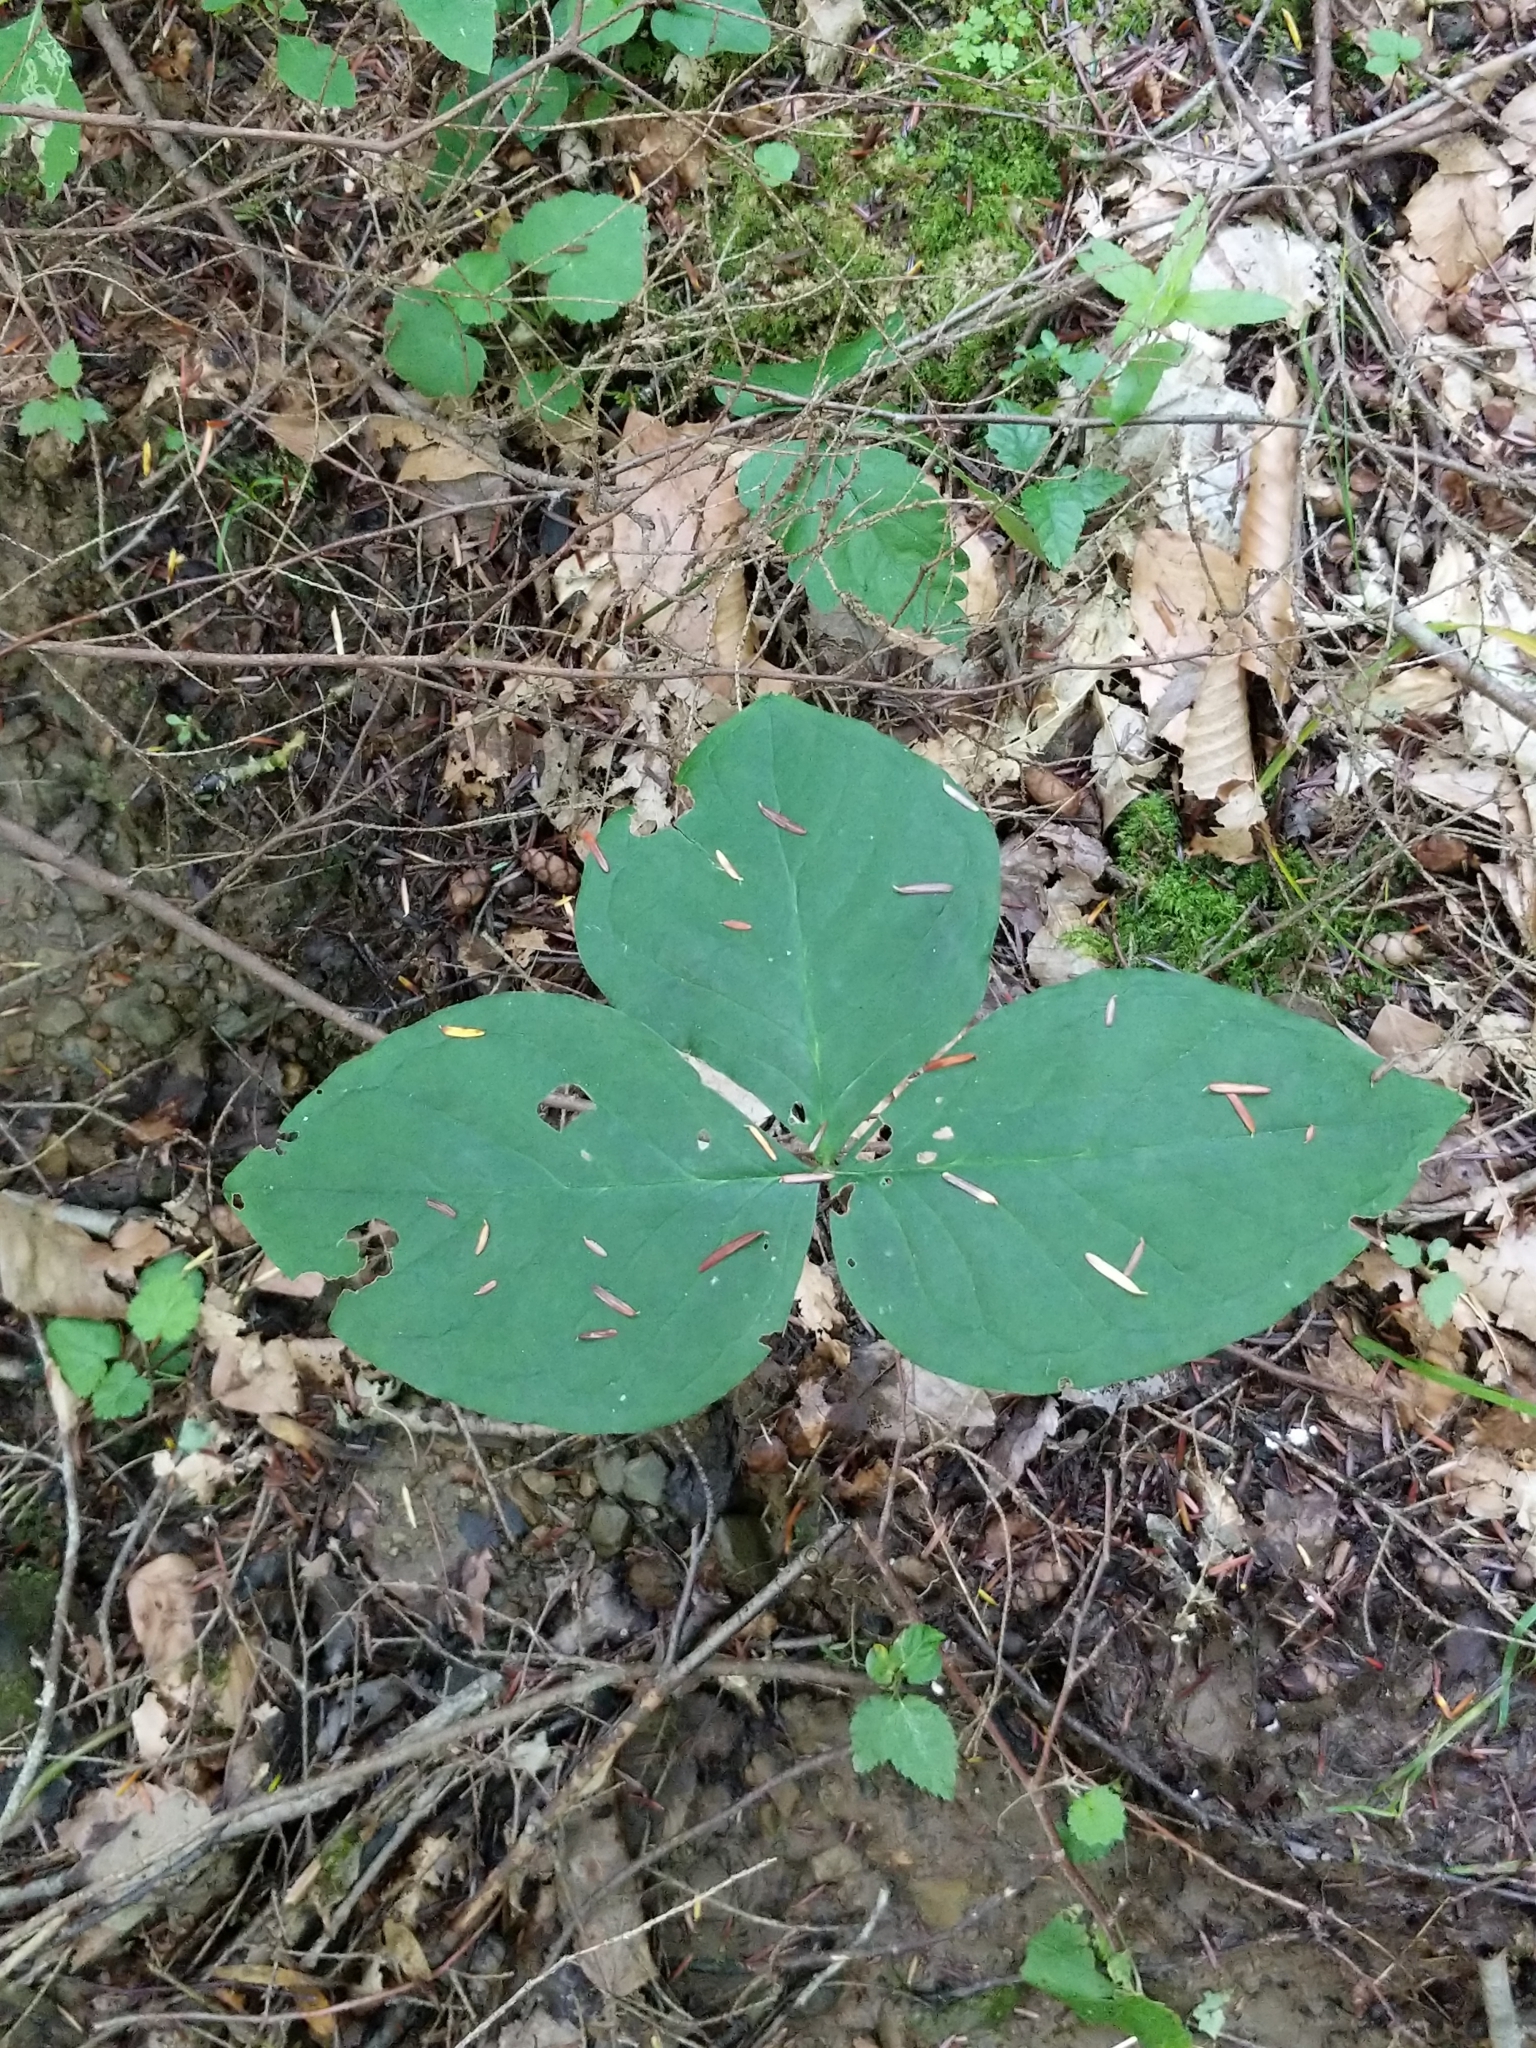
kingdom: Plantae
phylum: Tracheophyta
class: Liliopsida
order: Alismatales
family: Araceae
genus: Arisaema
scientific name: Arisaema triphyllum
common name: Jack-in-the-pulpit
